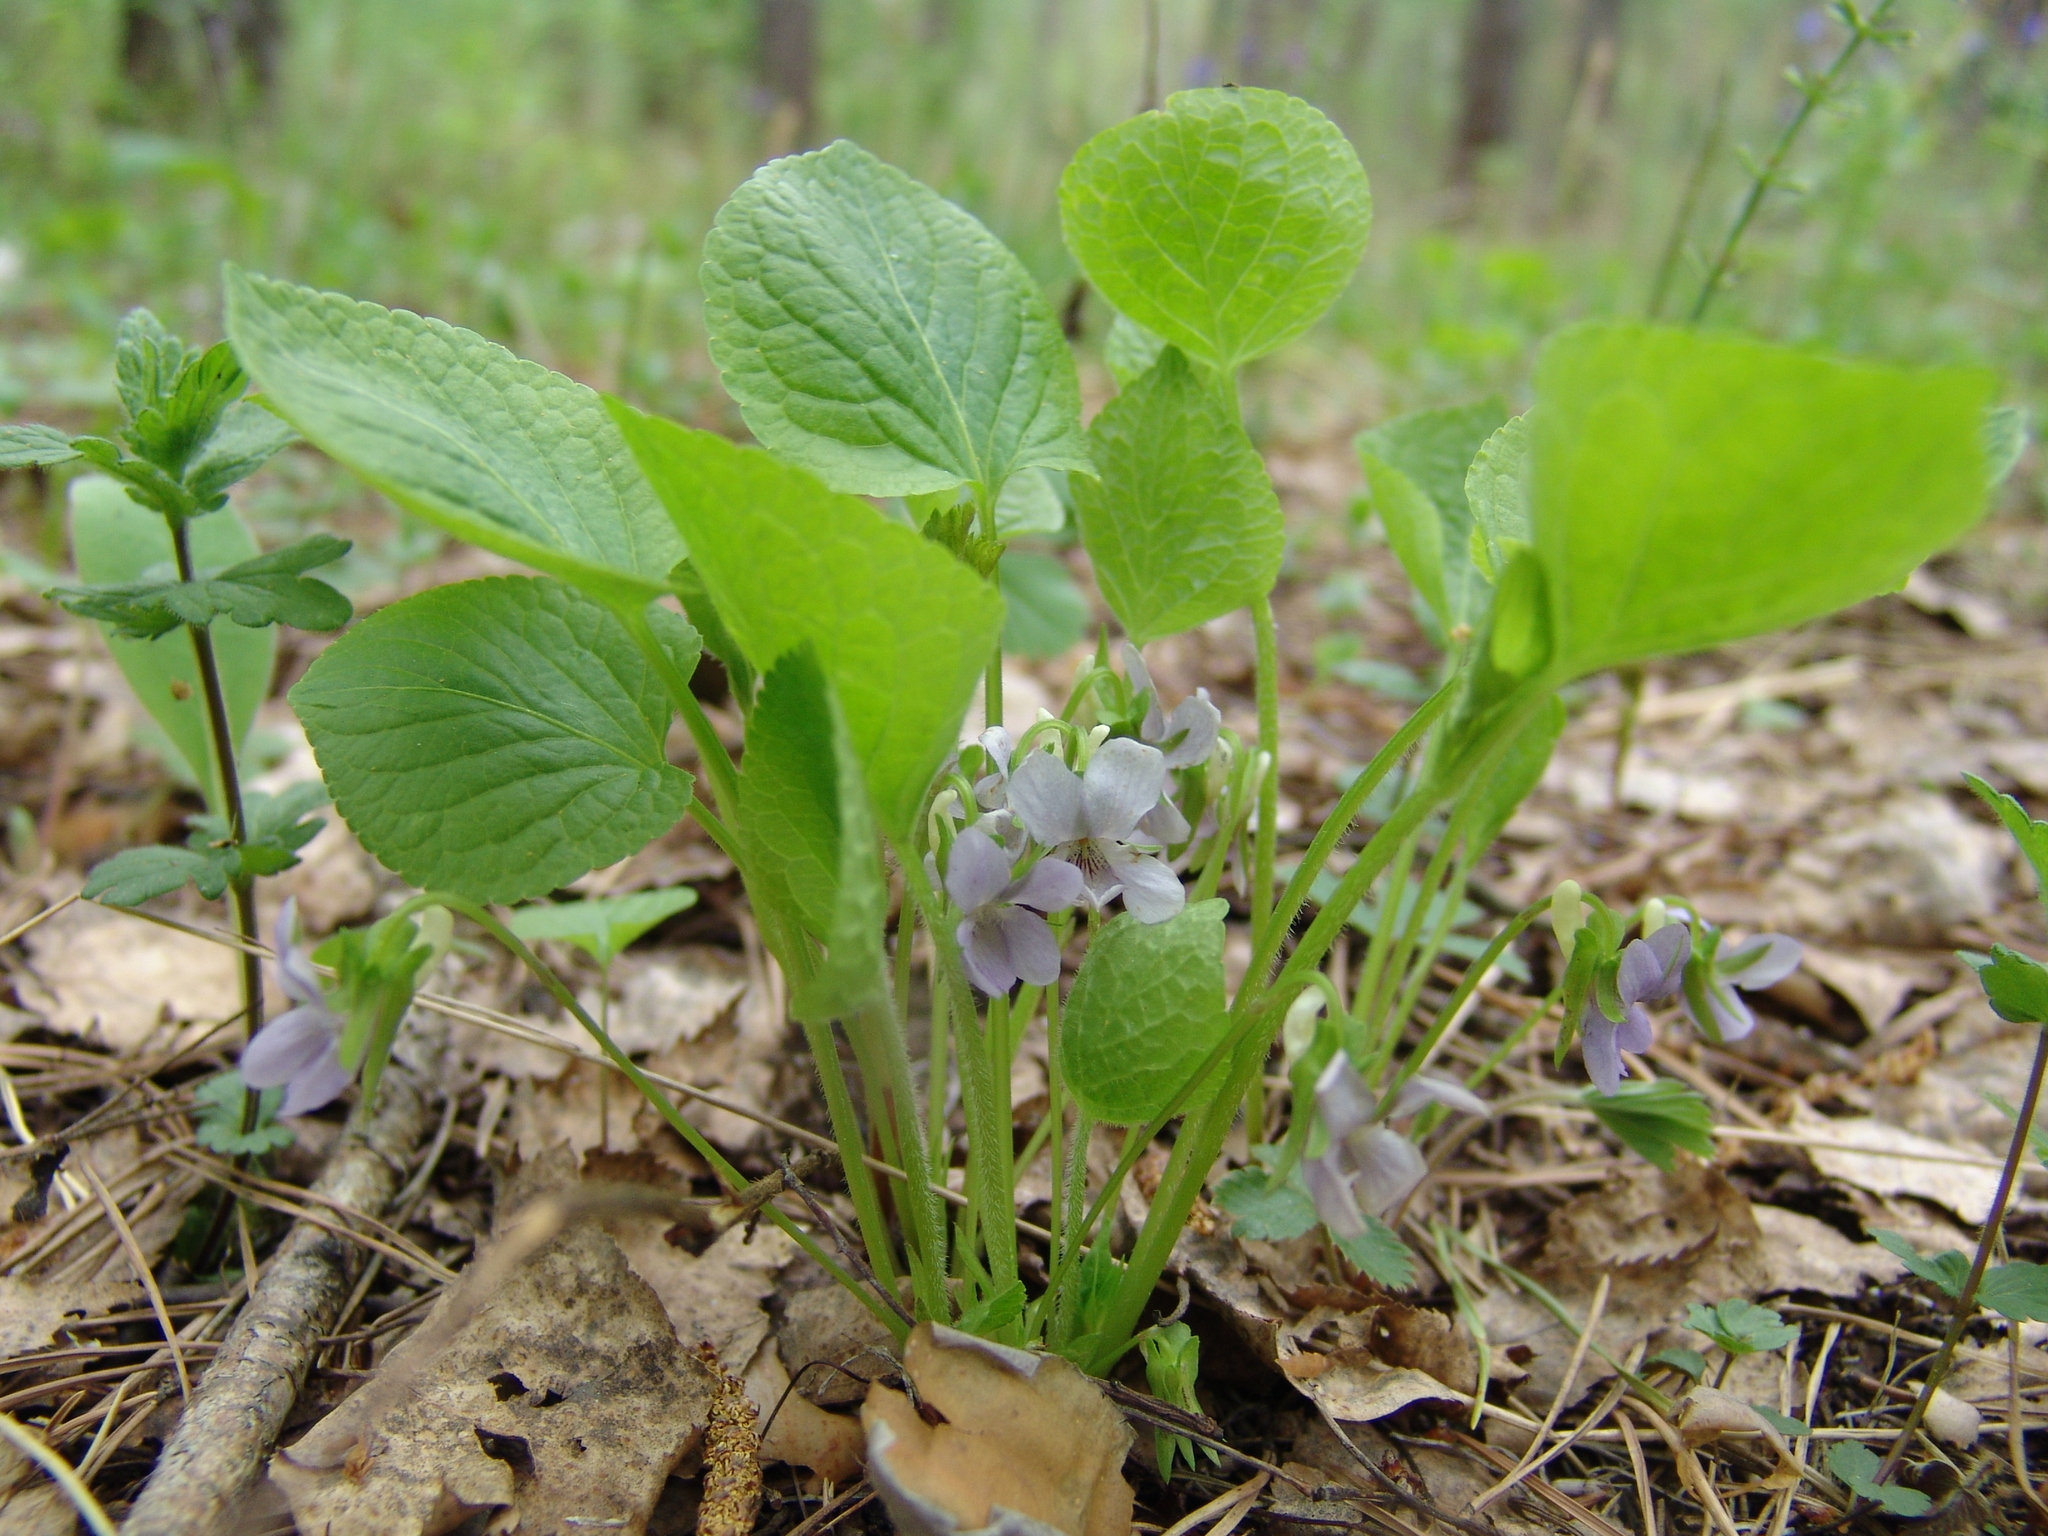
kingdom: Plantae
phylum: Tracheophyta
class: Magnoliopsida
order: Malpighiales
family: Violaceae
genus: Viola
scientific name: Viola mirabilis
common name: Wonder violet
